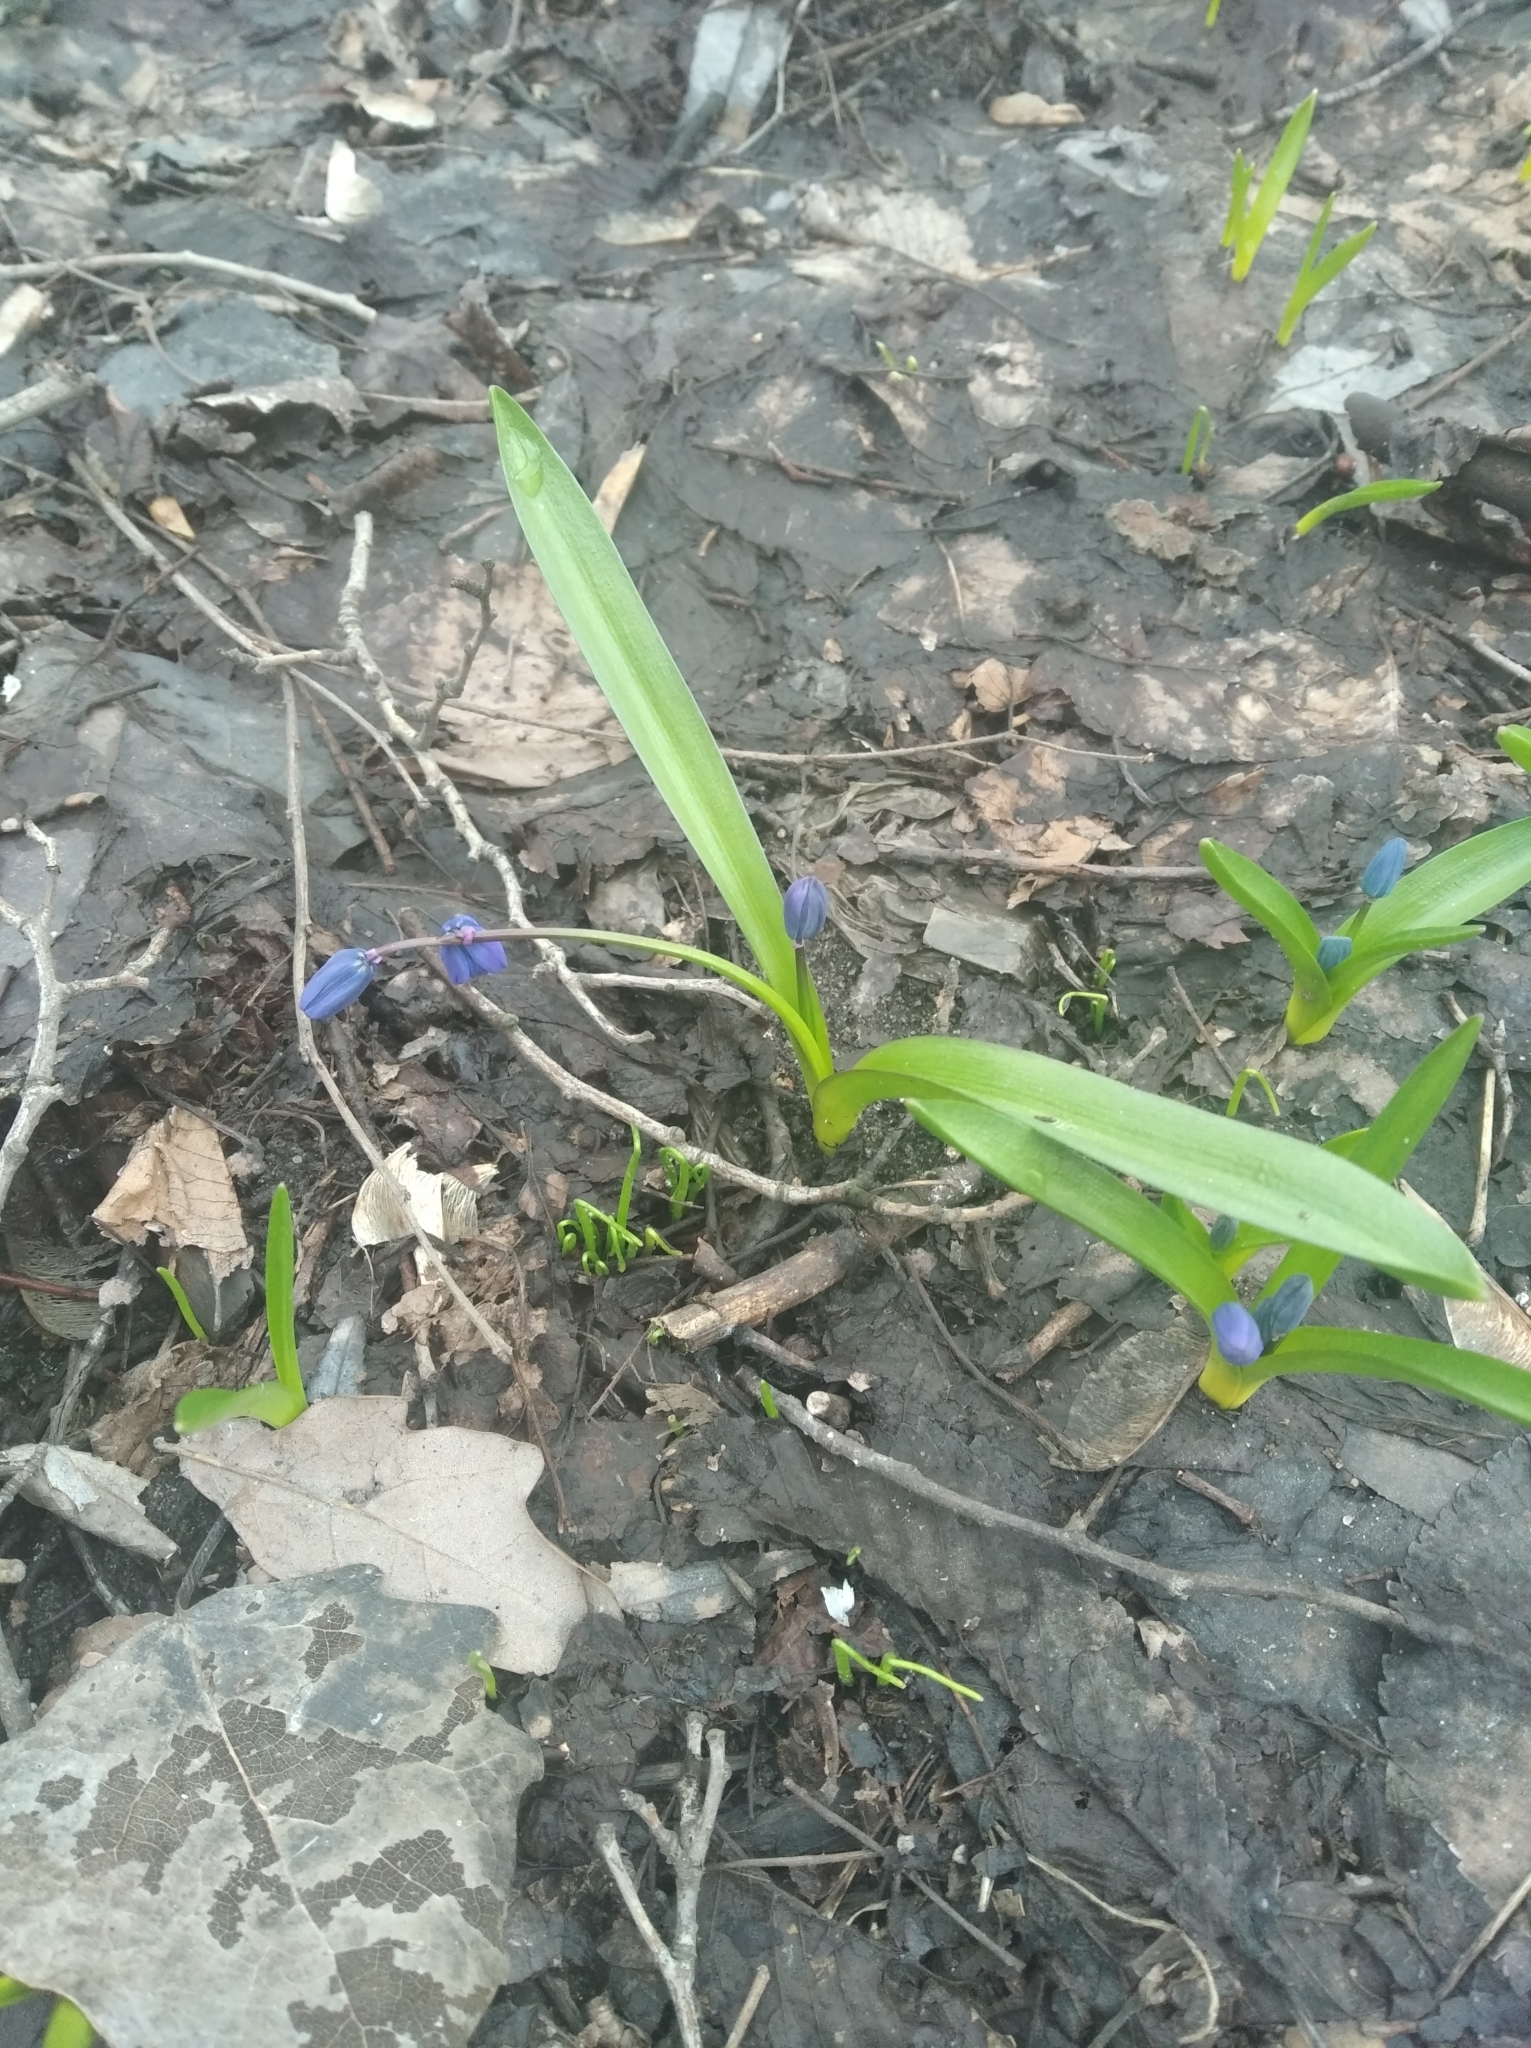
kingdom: Plantae
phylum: Tracheophyta
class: Liliopsida
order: Asparagales
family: Asparagaceae
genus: Scilla
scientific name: Scilla siberica
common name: Siberian squill
